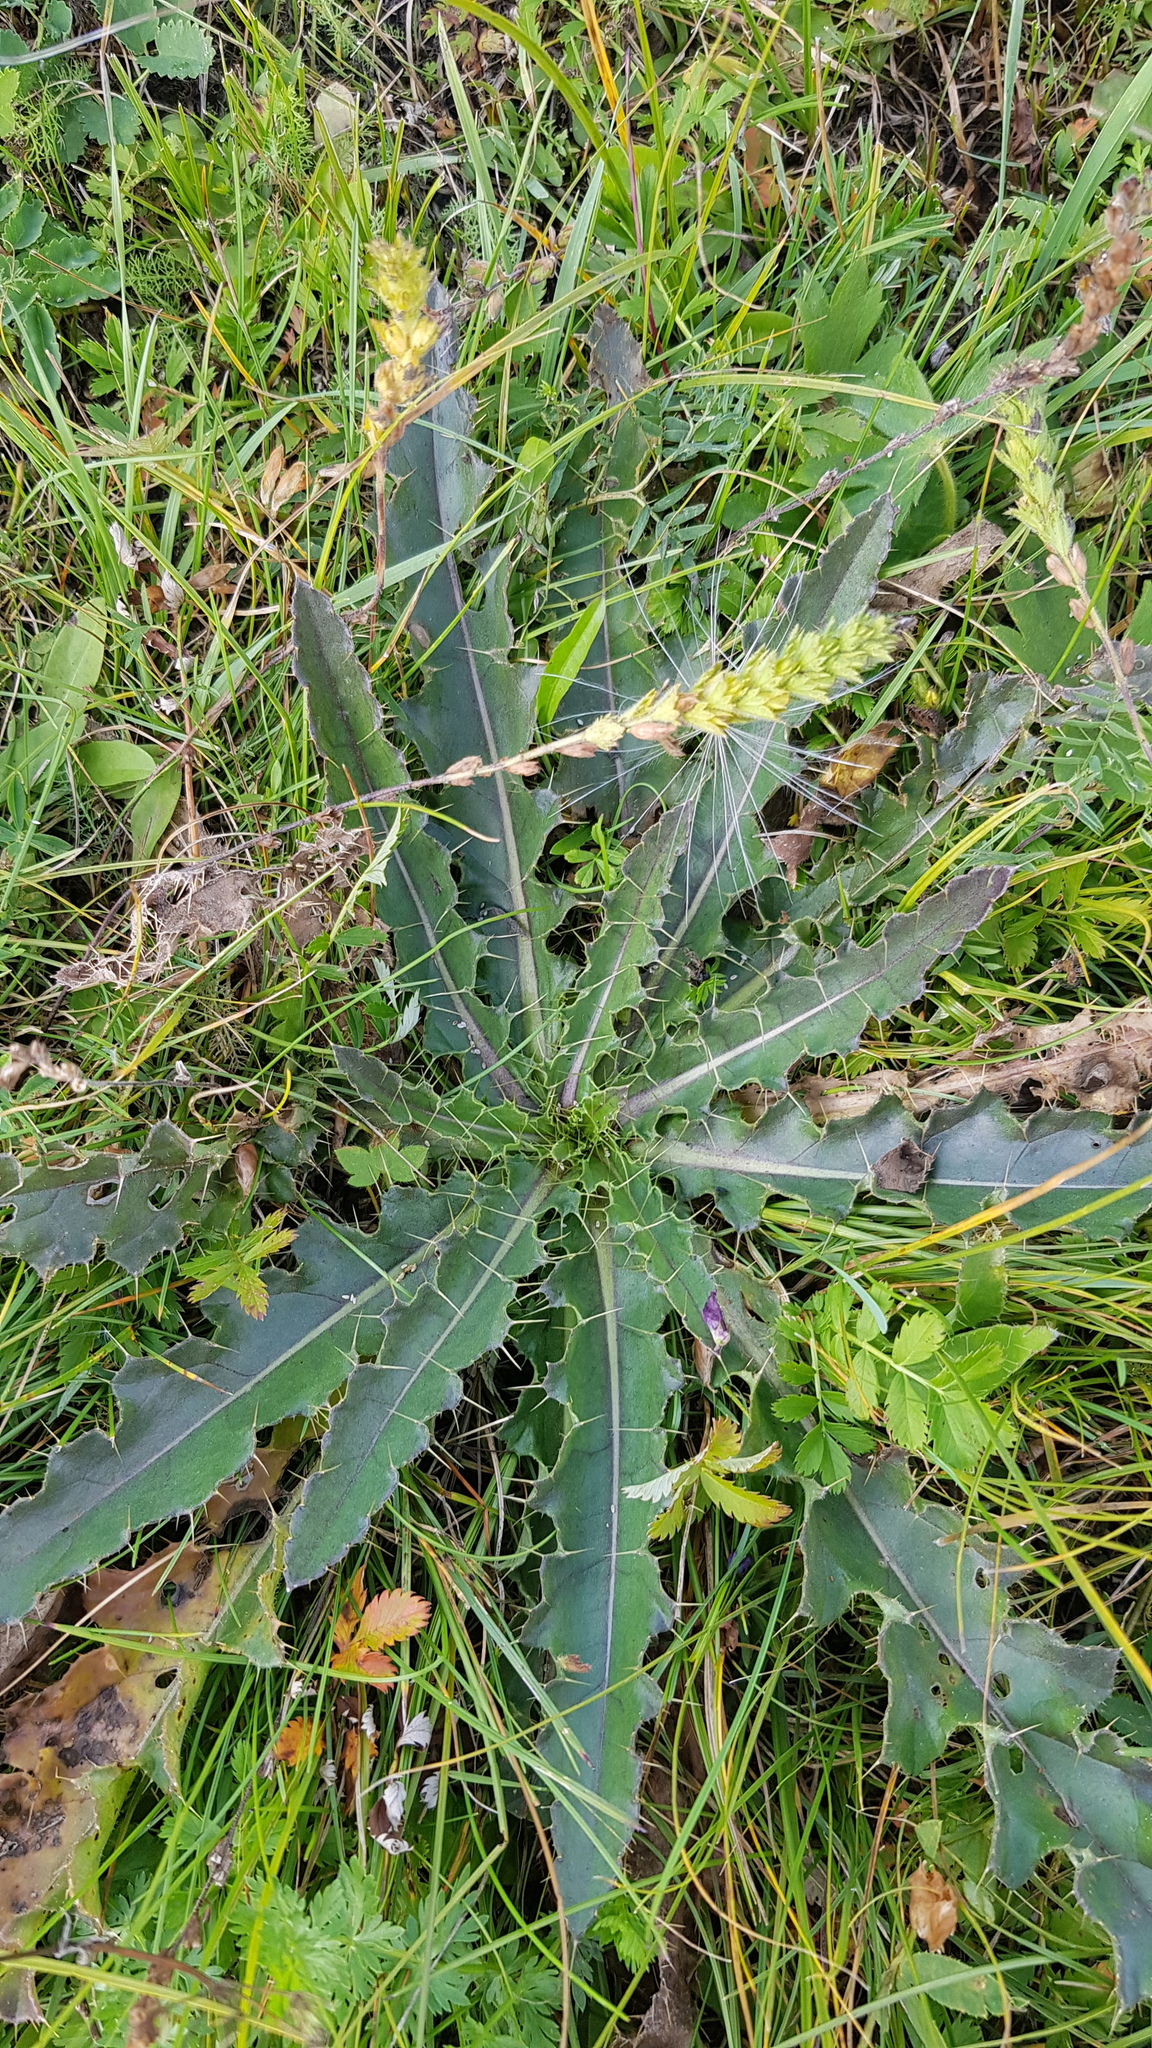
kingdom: Plantae
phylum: Tracheophyta
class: Magnoliopsida
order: Asterales
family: Asteraceae
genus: Cirsium
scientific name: Cirsium esculentum
